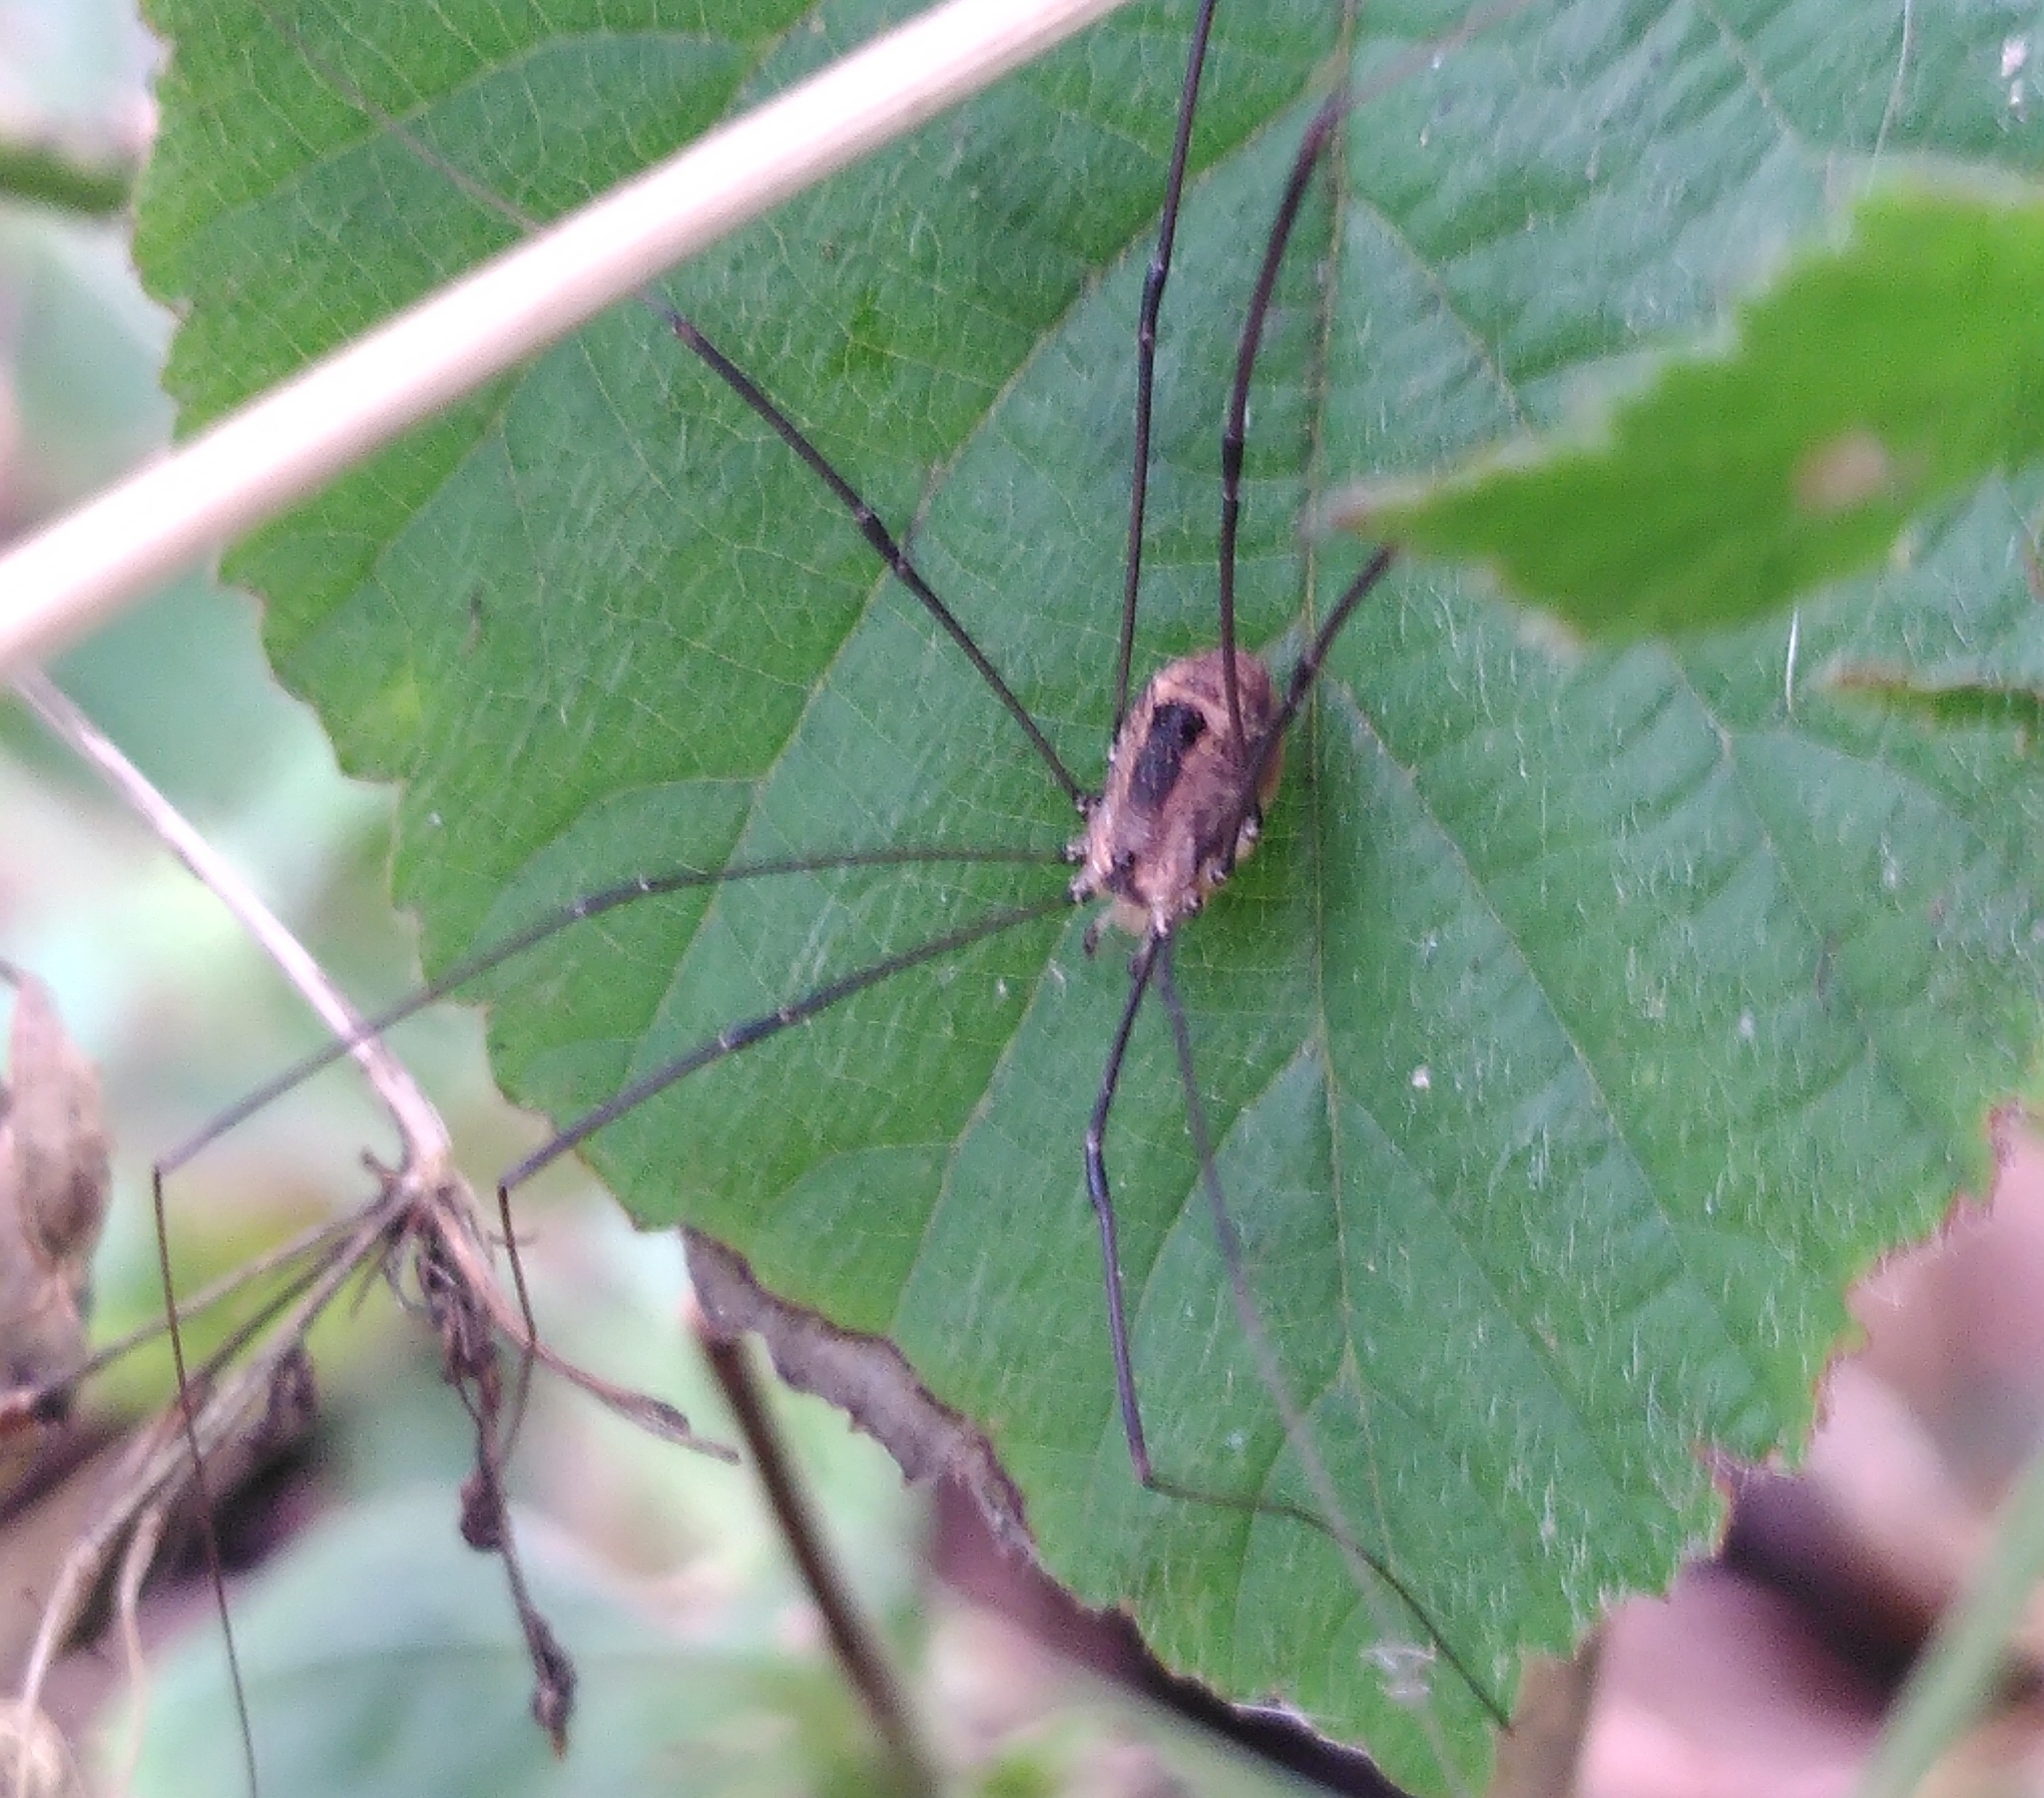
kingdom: Animalia
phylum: Arthropoda
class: Arachnida
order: Opiliones
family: Sclerosomatidae
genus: Leiobunum
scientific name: Leiobunum rotundum
